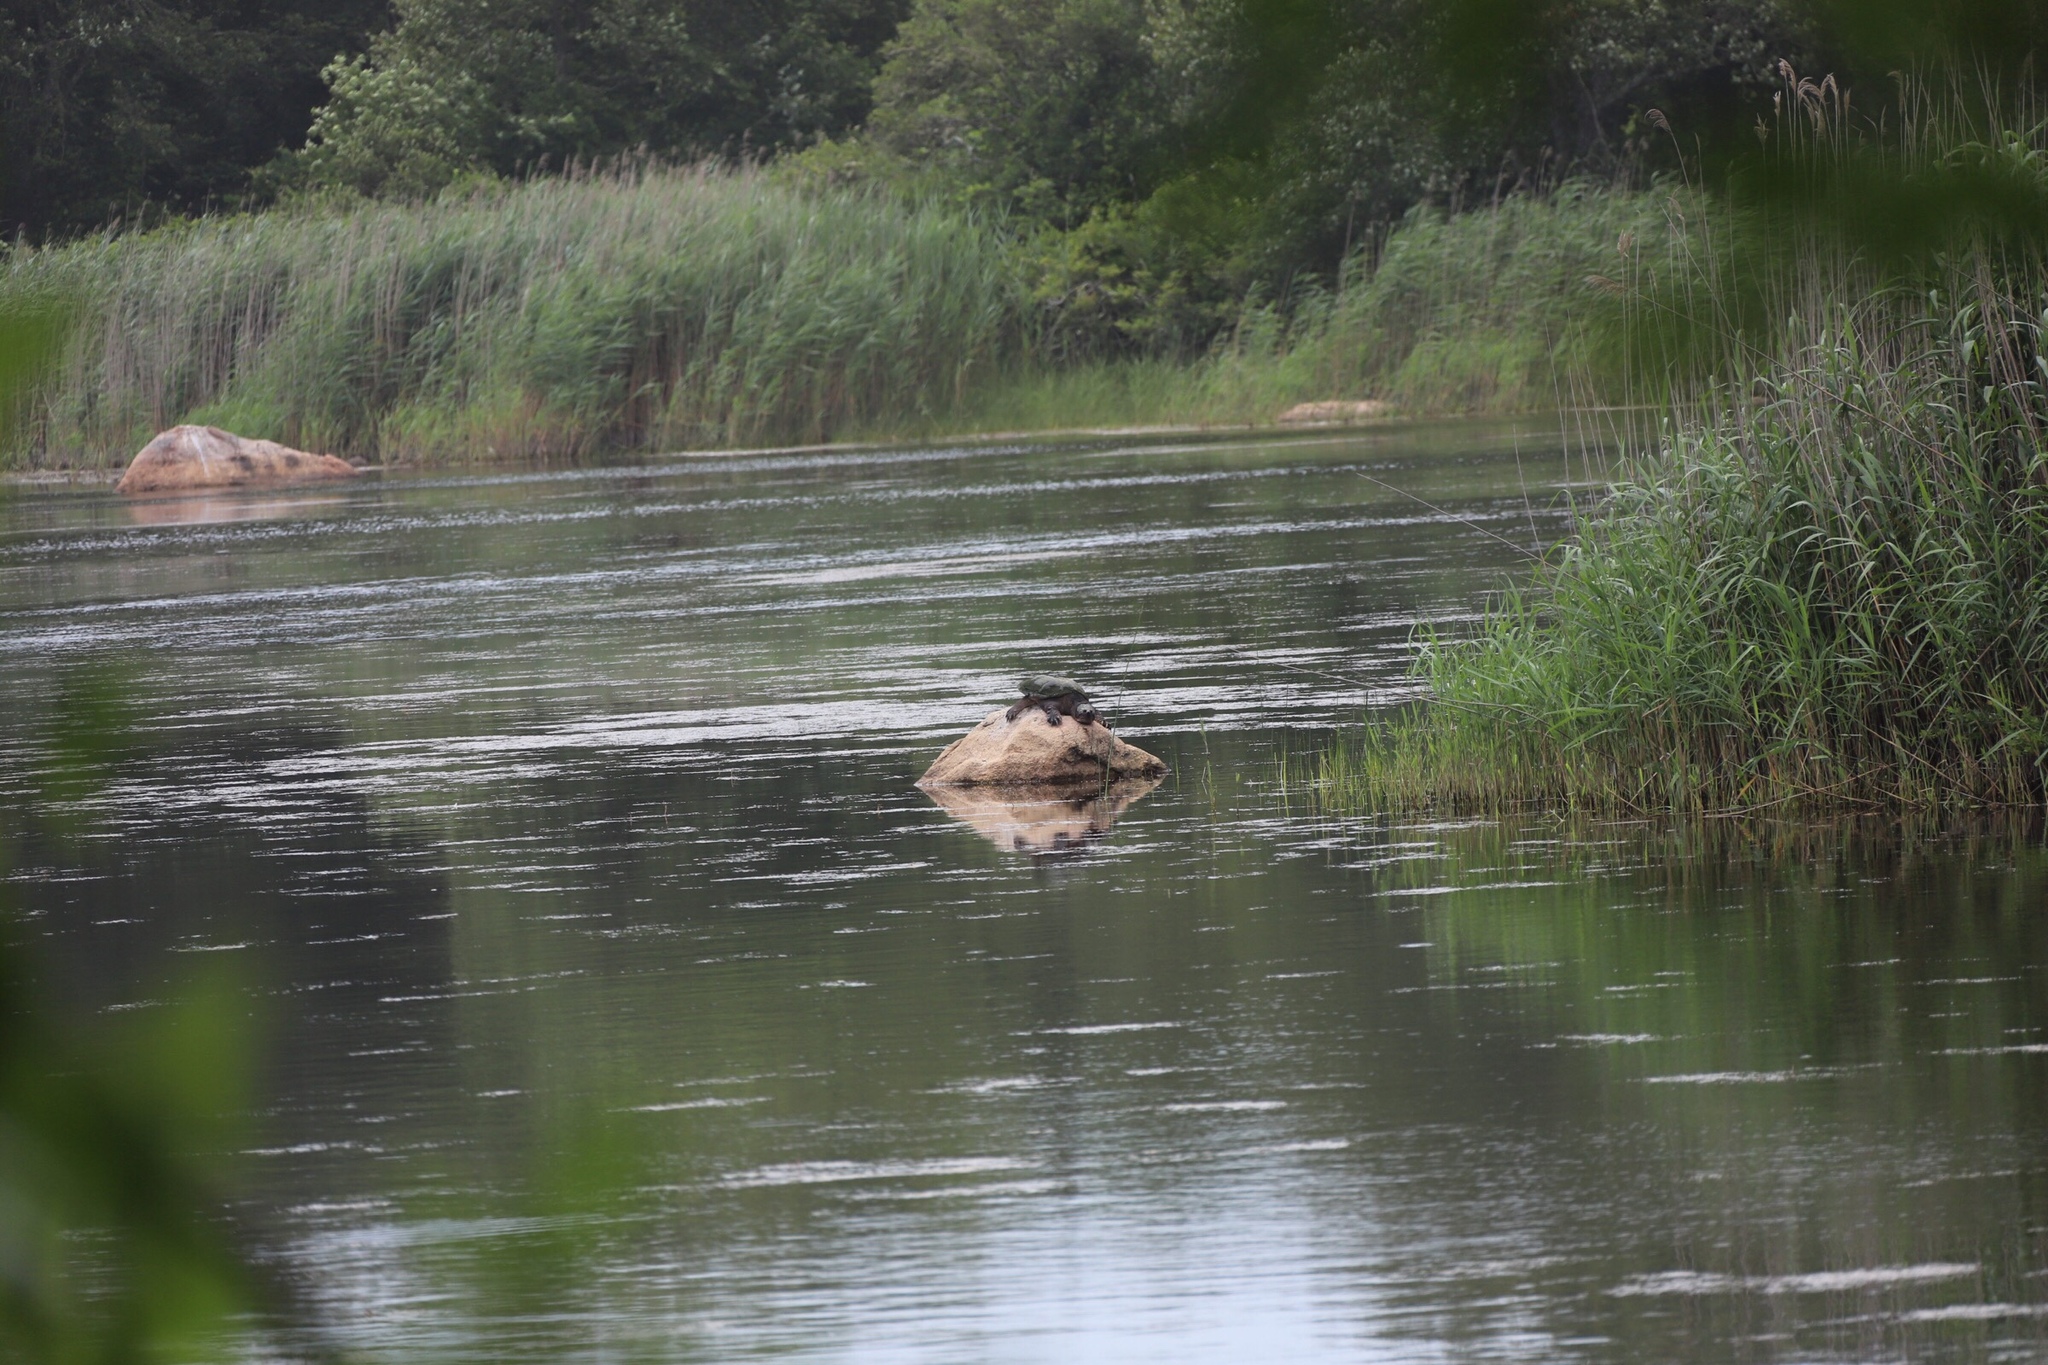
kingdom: Animalia
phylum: Chordata
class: Testudines
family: Chelydridae
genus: Chelydra
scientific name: Chelydra serpentina
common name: Common snapping turtle
